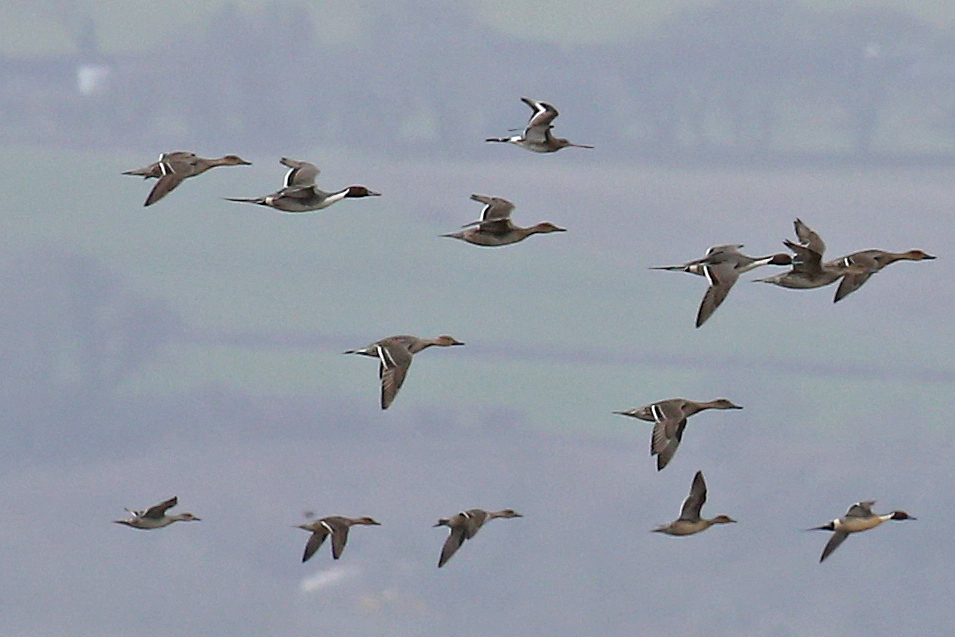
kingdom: Animalia
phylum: Chordata
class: Aves
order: Anseriformes
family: Anatidae
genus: Anas
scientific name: Anas acuta
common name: Northern pintail
